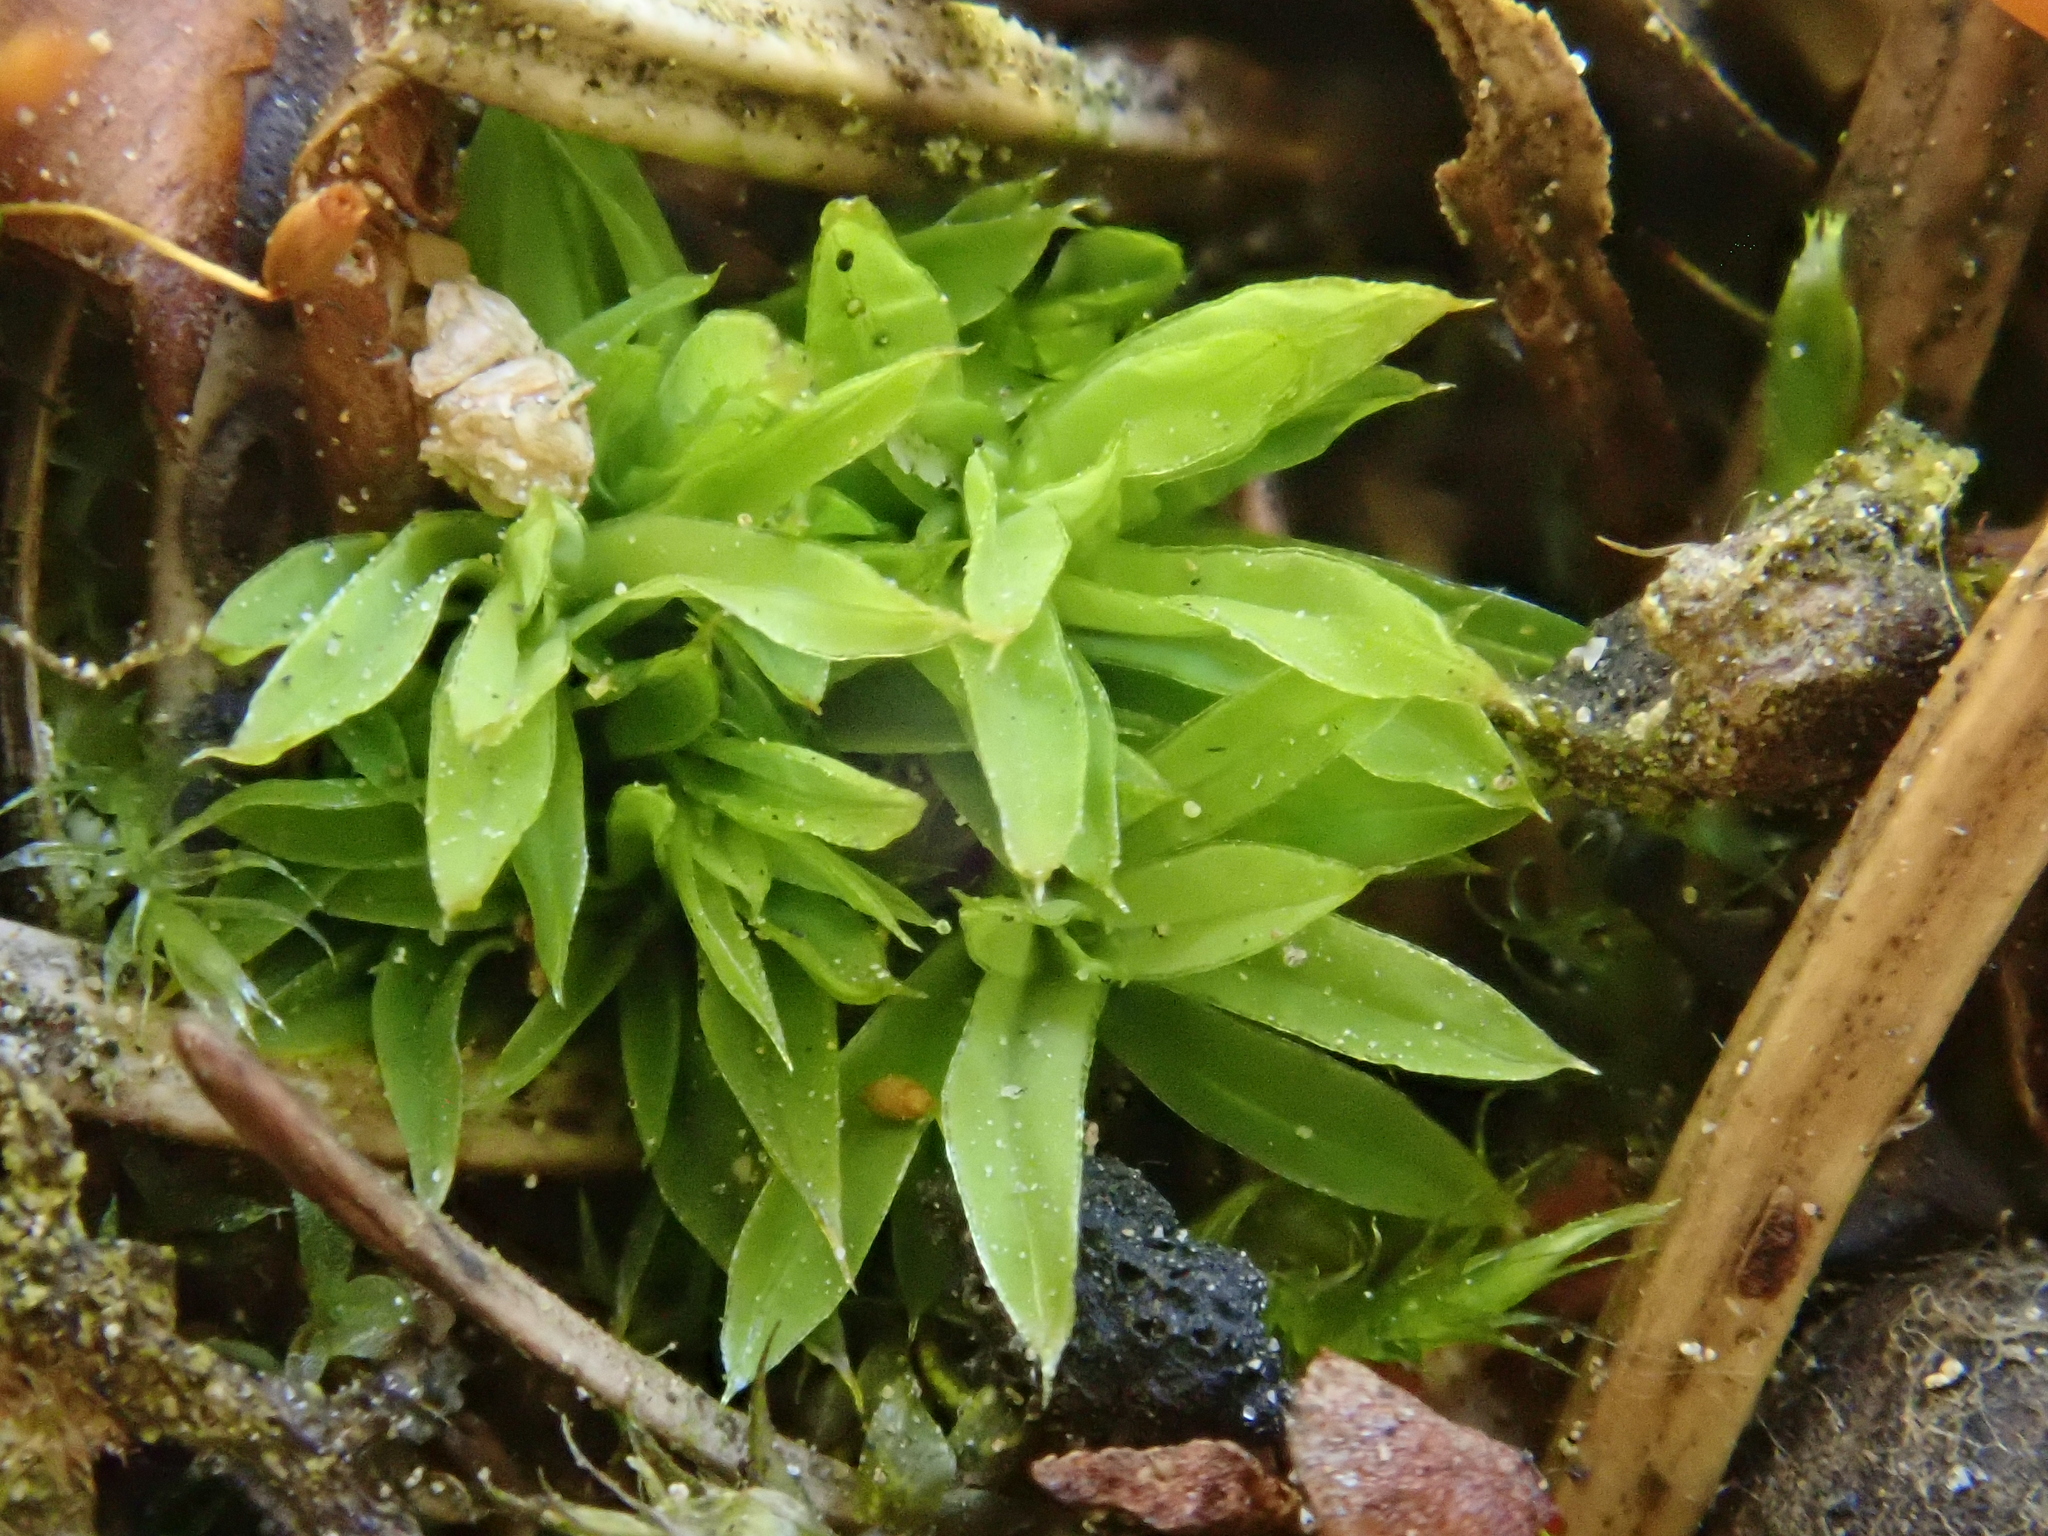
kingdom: Plantae
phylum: Bryophyta
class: Bryopsida
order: Pottiales
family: Pottiaceae
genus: Tortula
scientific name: Tortula subulata
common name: Upright screw-moss
